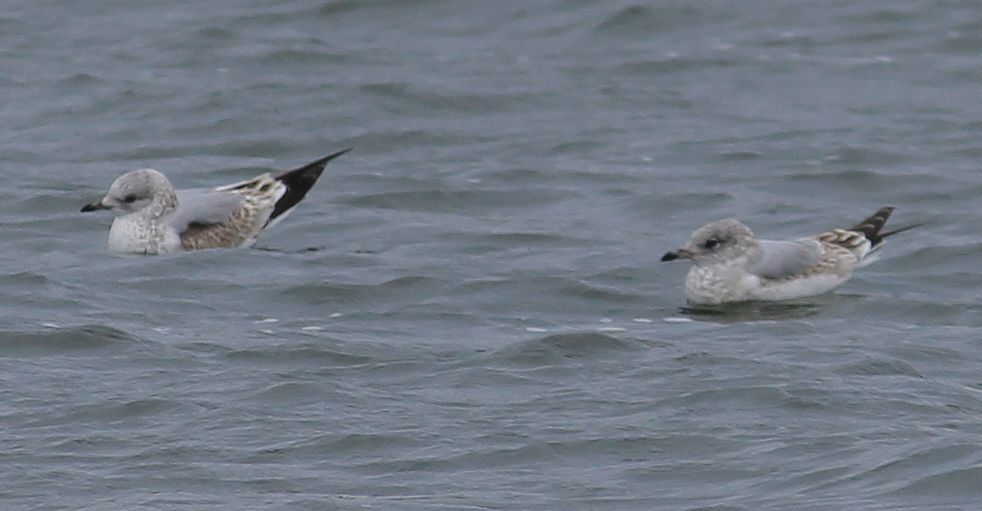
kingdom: Animalia
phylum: Chordata
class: Aves
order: Charadriiformes
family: Laridae
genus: Larus
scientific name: Larus canus
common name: Mew gull
